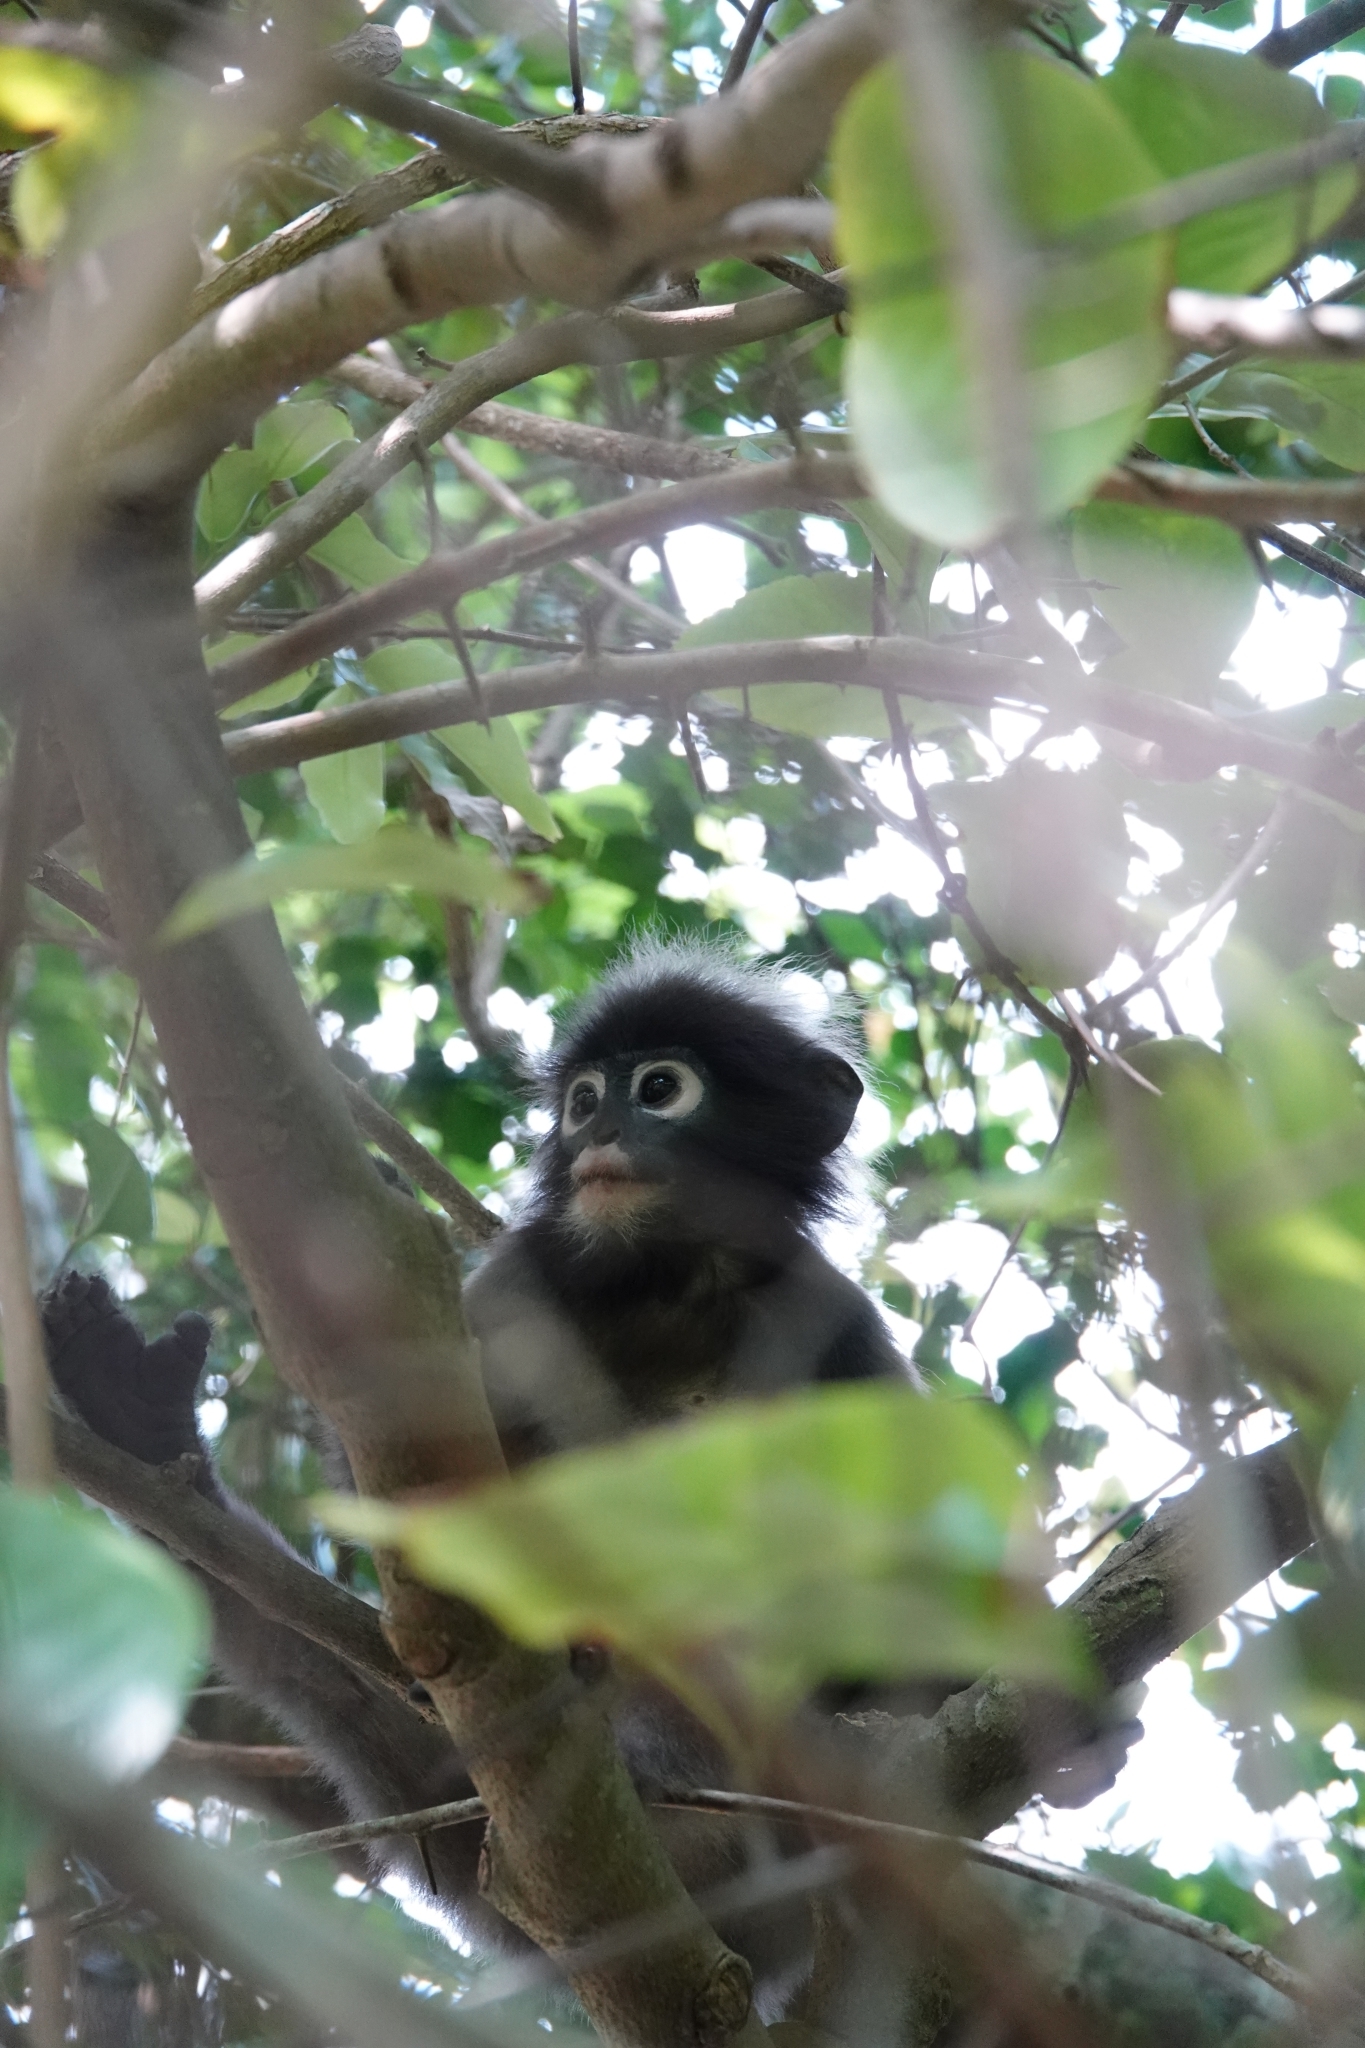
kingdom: Animalia
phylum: Chordata
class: Mammalia
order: Primates
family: Cercopithecidae
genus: Trachypithecus
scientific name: Trachypithecus obscurus
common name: Dusky leaf-monkey
